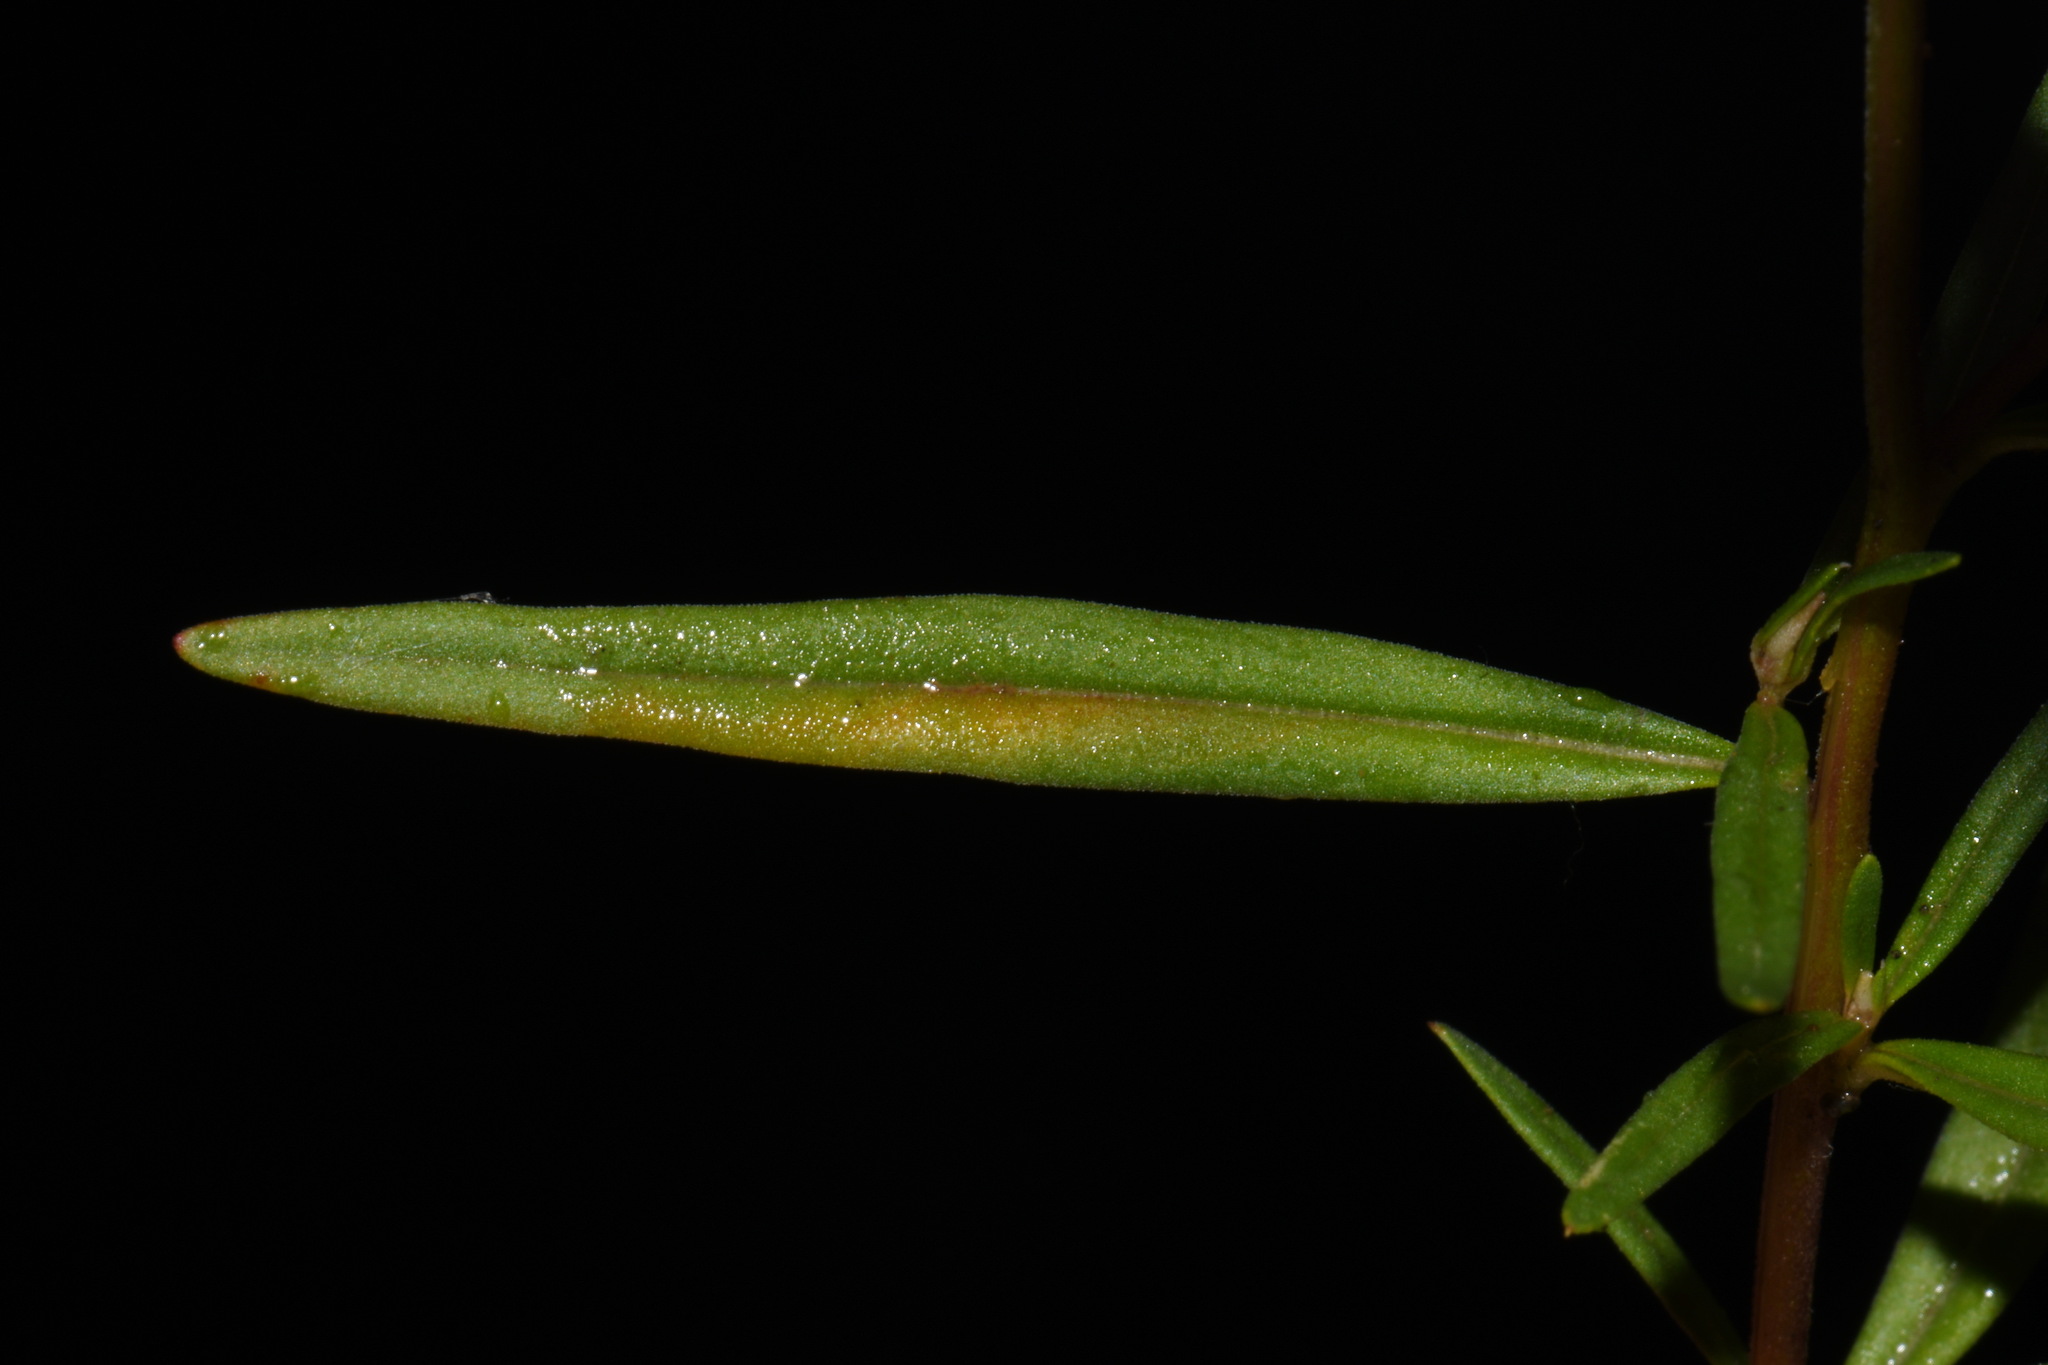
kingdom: Plantae
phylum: Tracheophyta
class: Magnoliopsida
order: Myrtales
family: Onagraceae
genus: Clarkia
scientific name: Clarkia pulchella
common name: Deer horn
